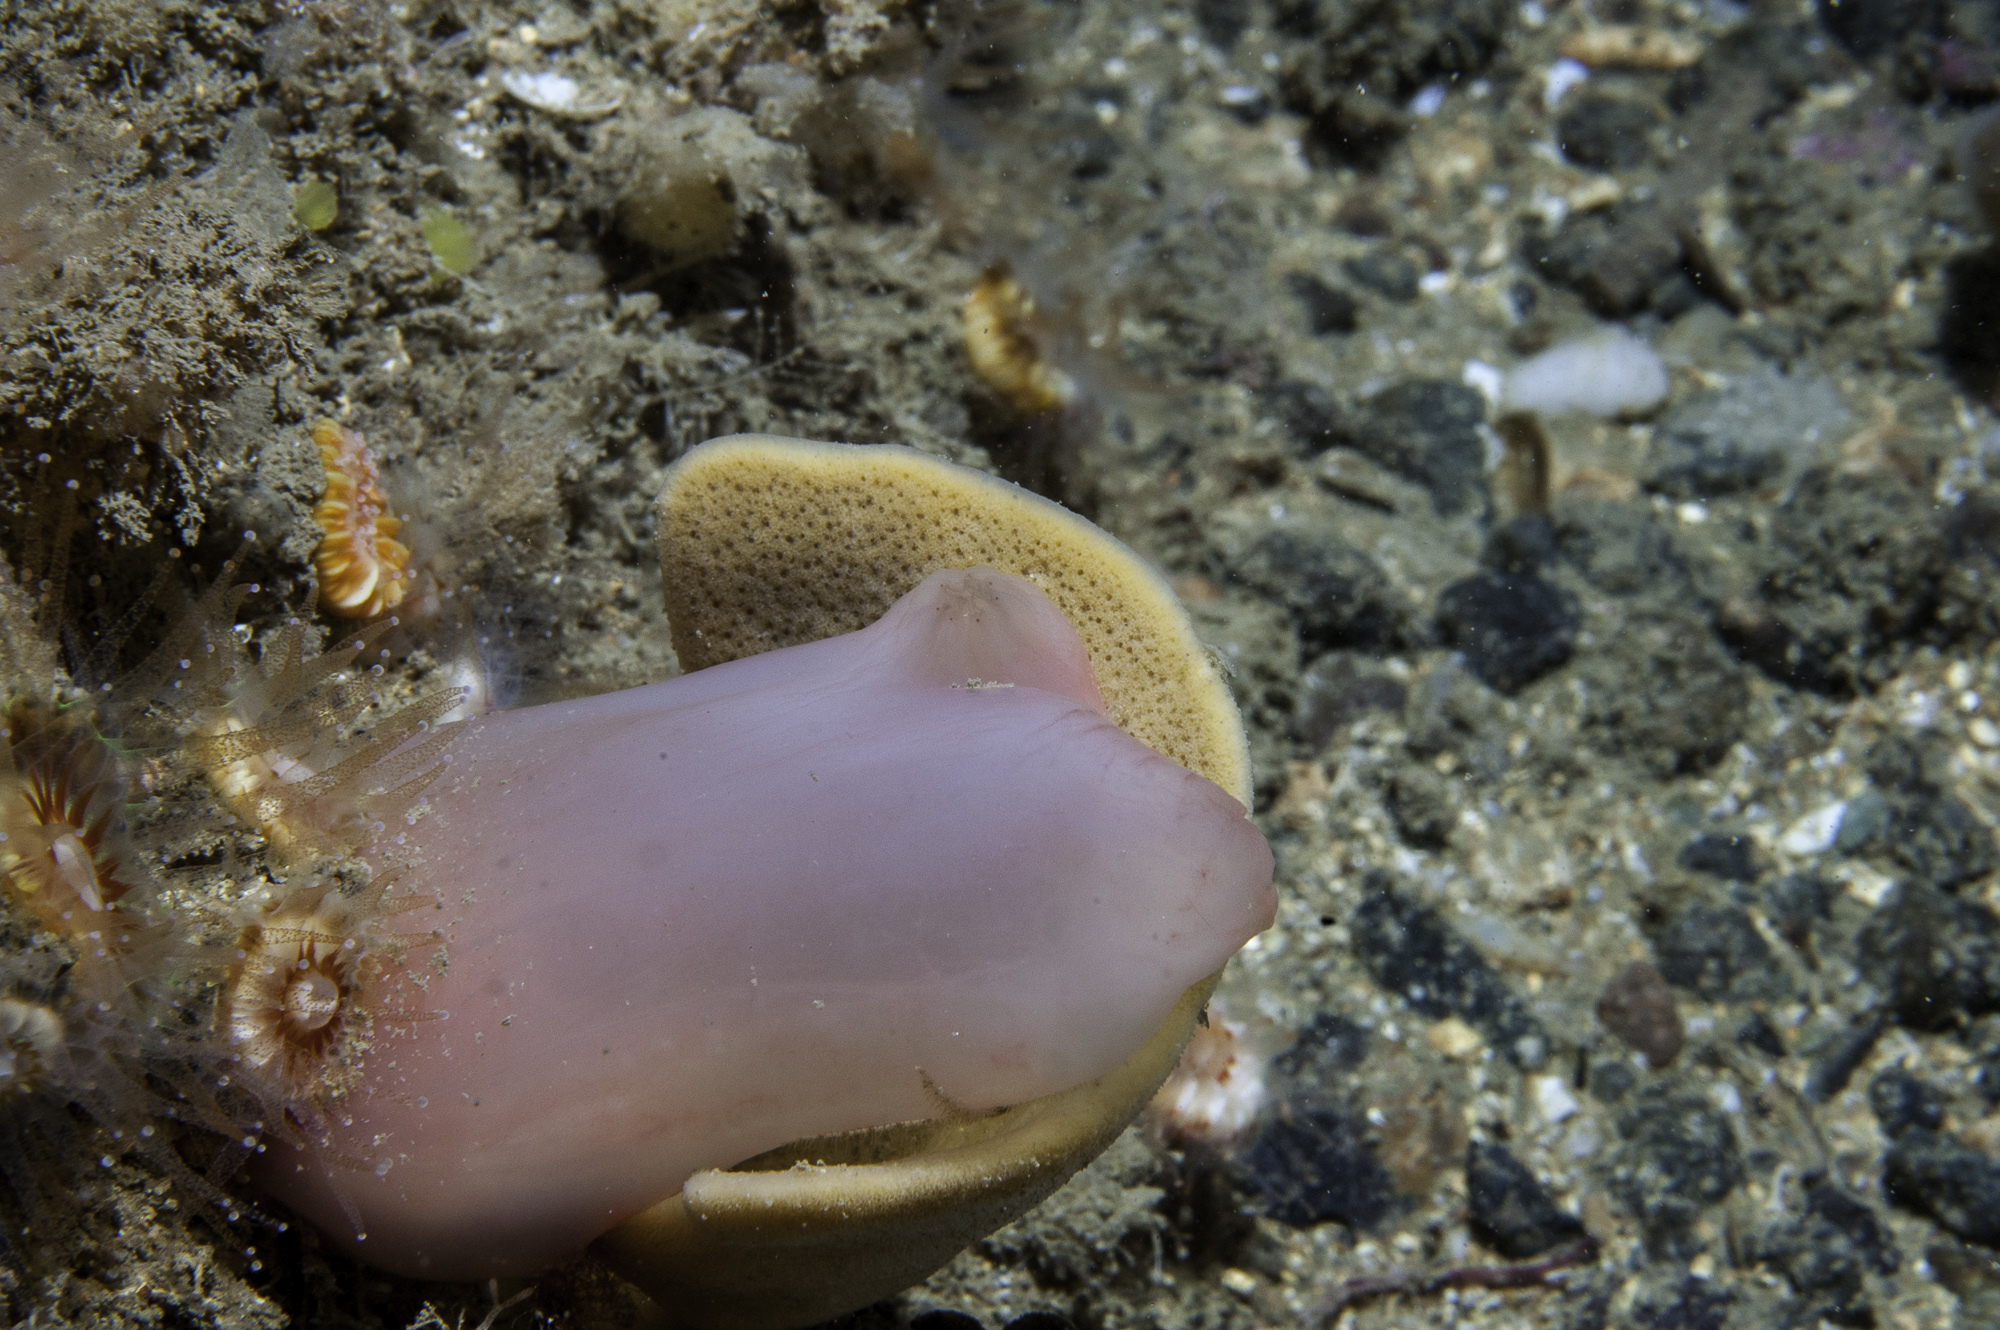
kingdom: Animalia
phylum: Chordata
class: Ascidiacea
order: Phlebobranchia
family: Ascidiidae
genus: Ascidia
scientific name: Ascidia virginea
